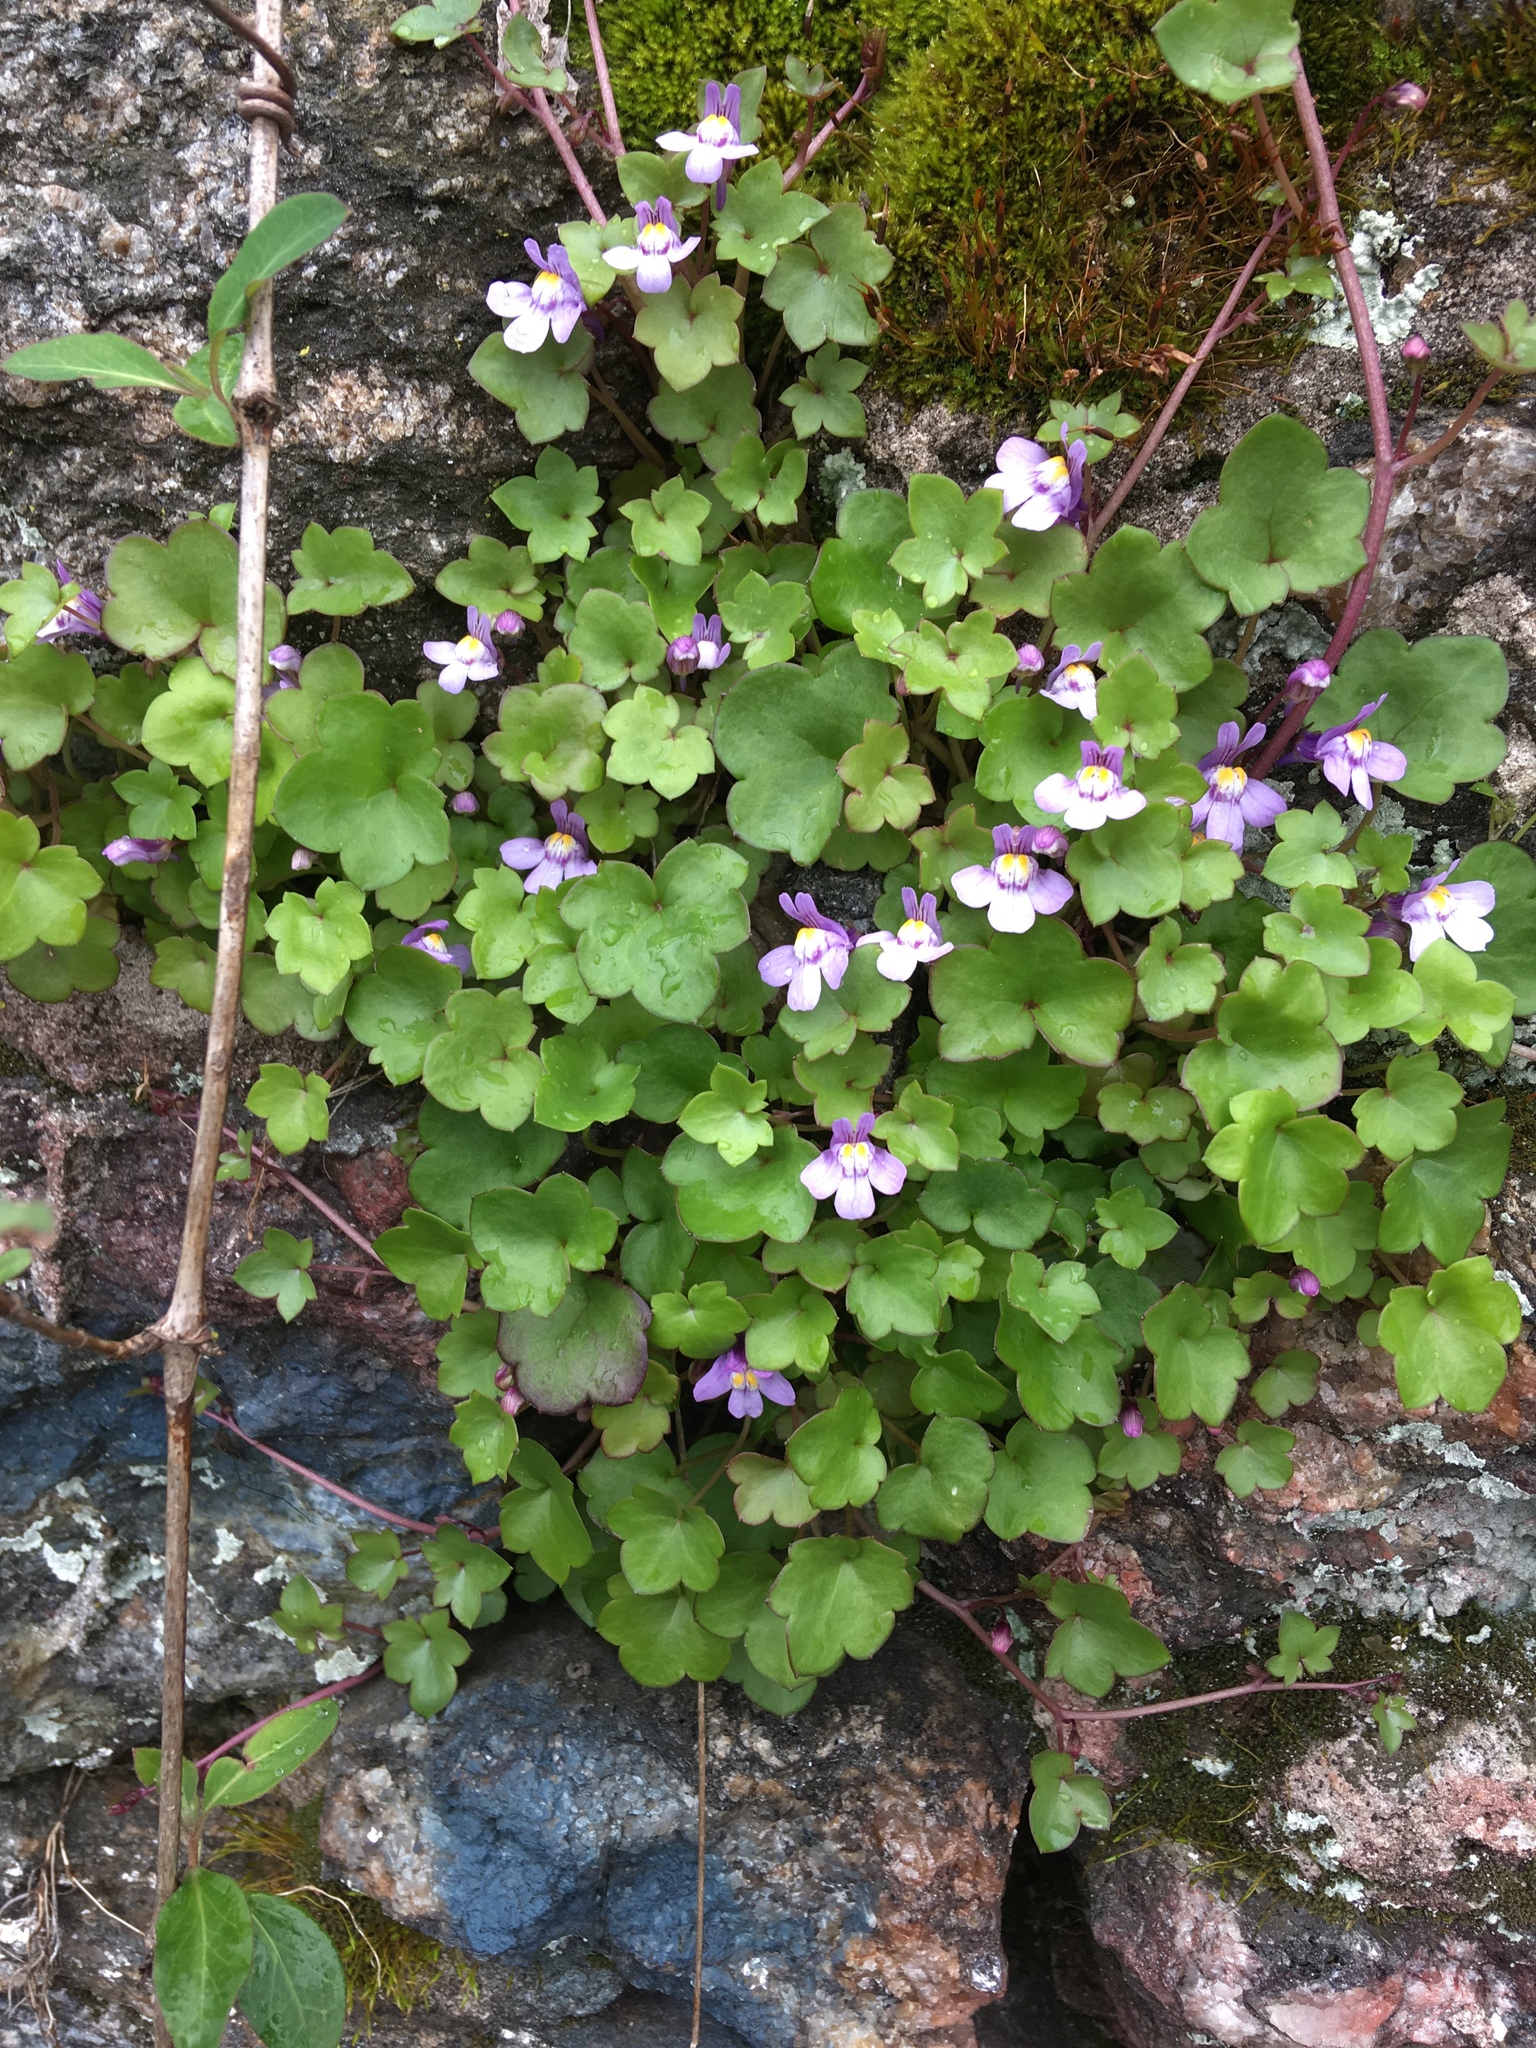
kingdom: Plantae
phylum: Tracheophyta
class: Magnoliopsida
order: Lamiales
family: Plantaginaceae
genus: Cymbalaria
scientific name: Cymbalaria muralis
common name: Ivy-leaved toadflax
